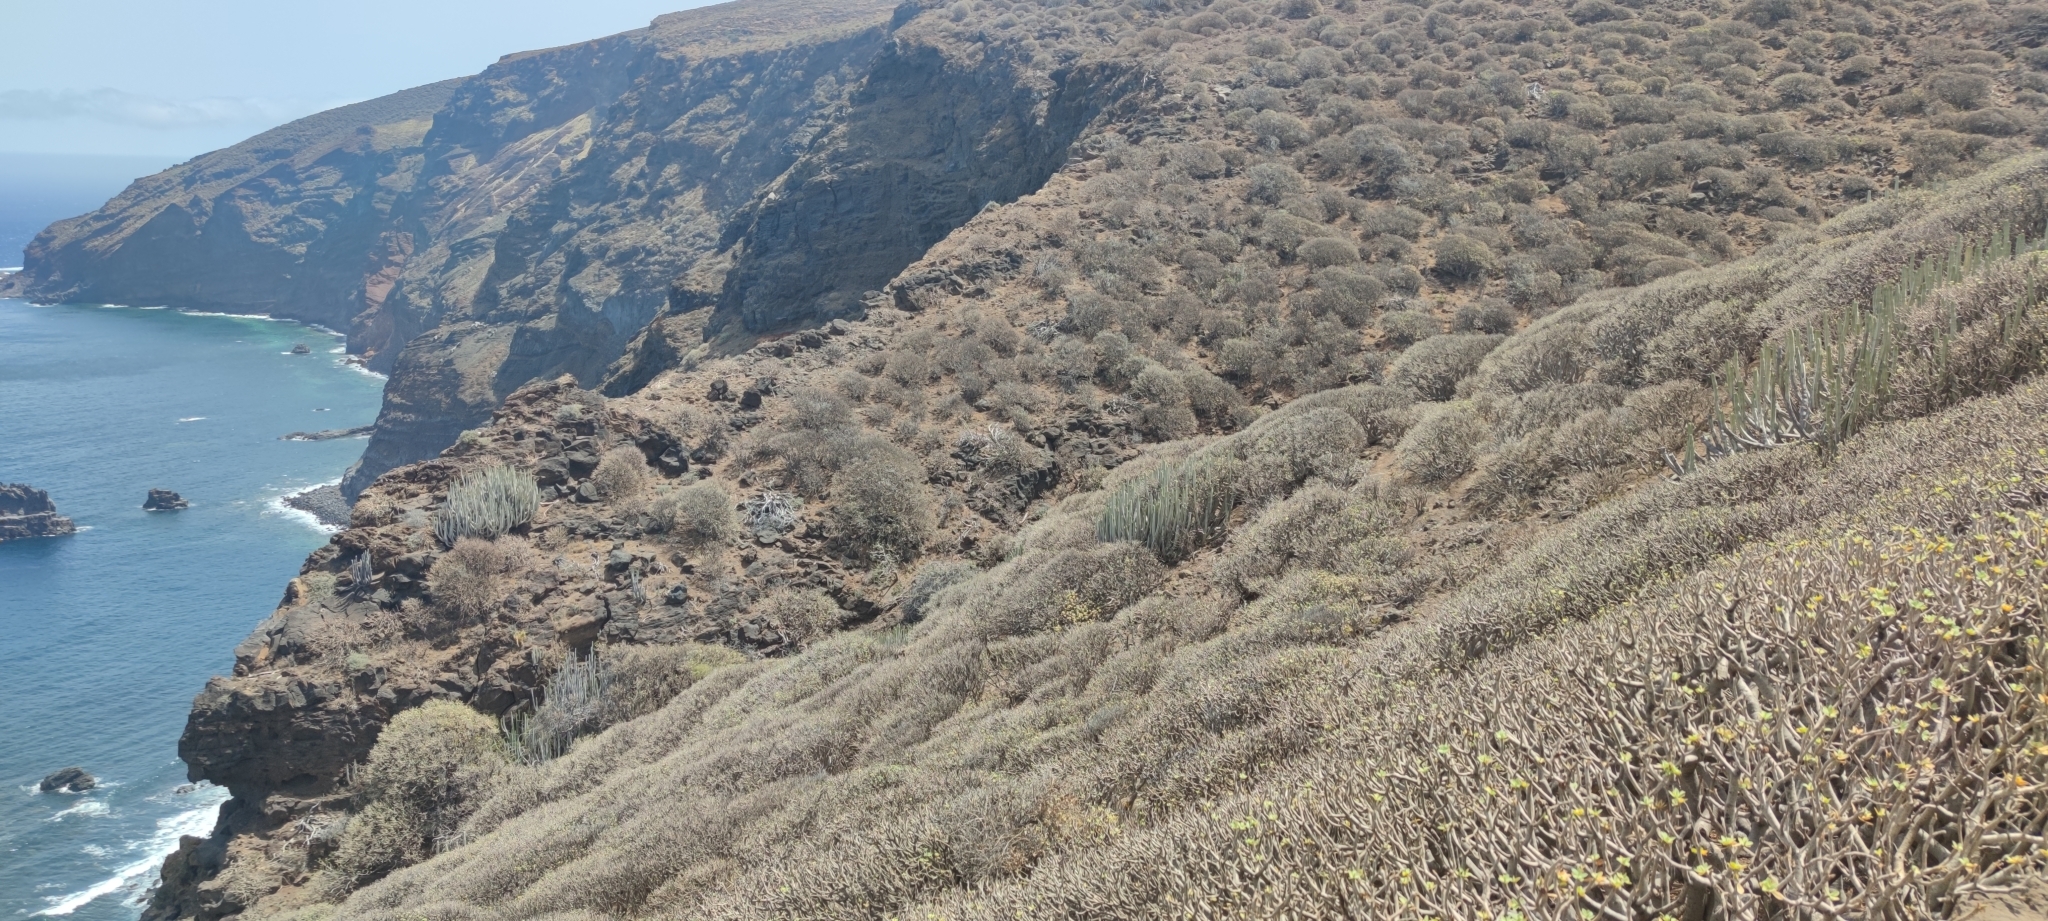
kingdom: Plantae
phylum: Tracheophyta
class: Magnoliopsida
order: Malpighiales
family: Euphorbiaceae
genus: Euphorbia
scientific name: Euphorbia balsamifera
